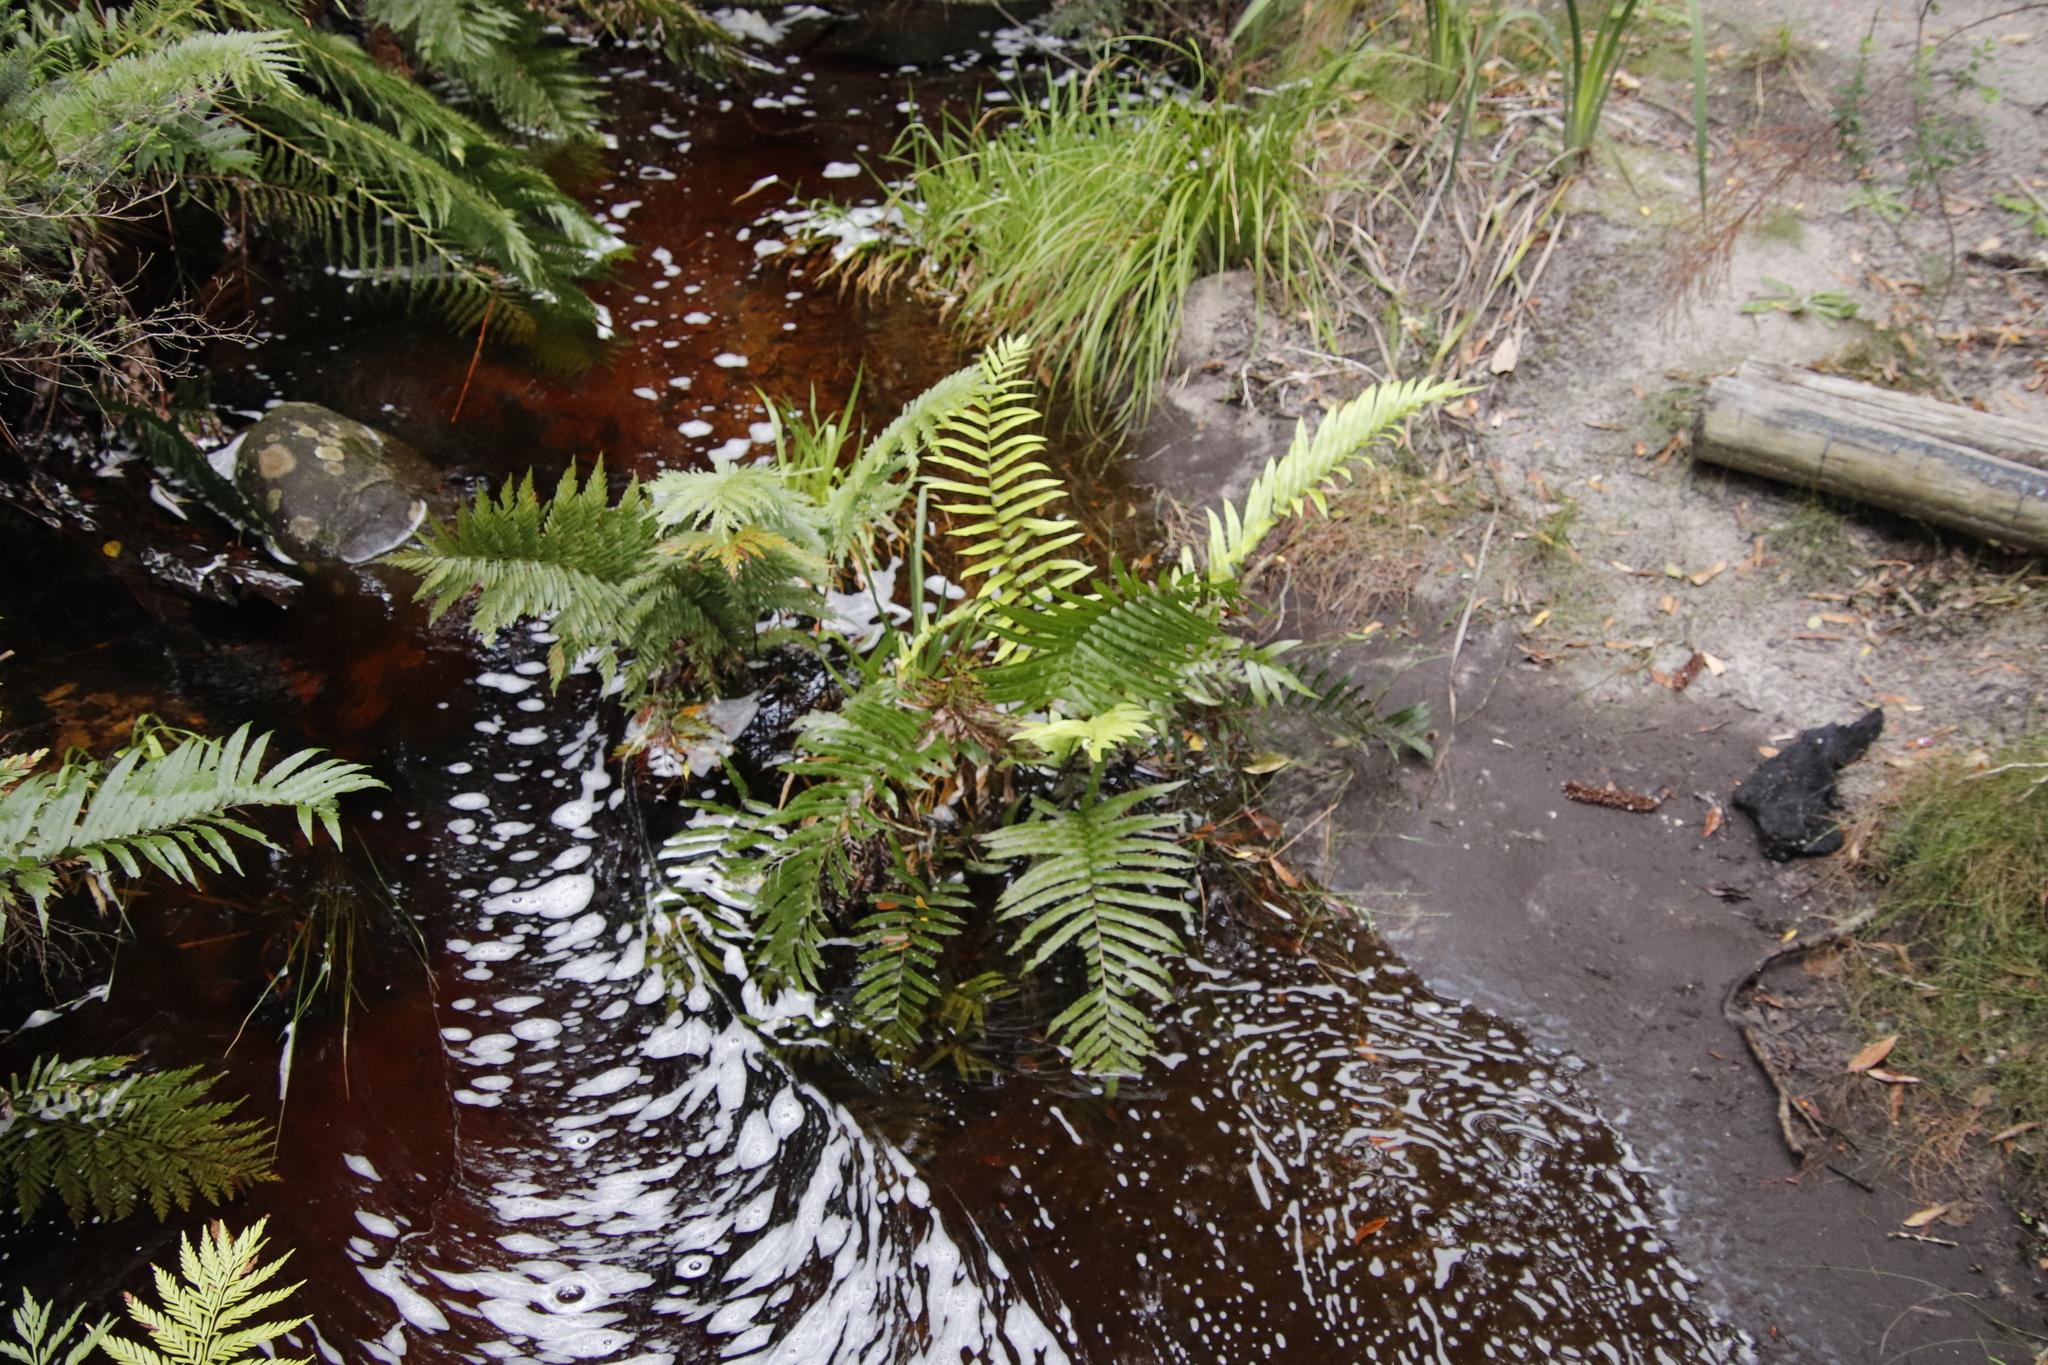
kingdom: Plantae
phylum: Tracheophyta
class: Polypodiopsida
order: Polypodiales
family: Blechnaceae
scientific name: Blechnaceae
